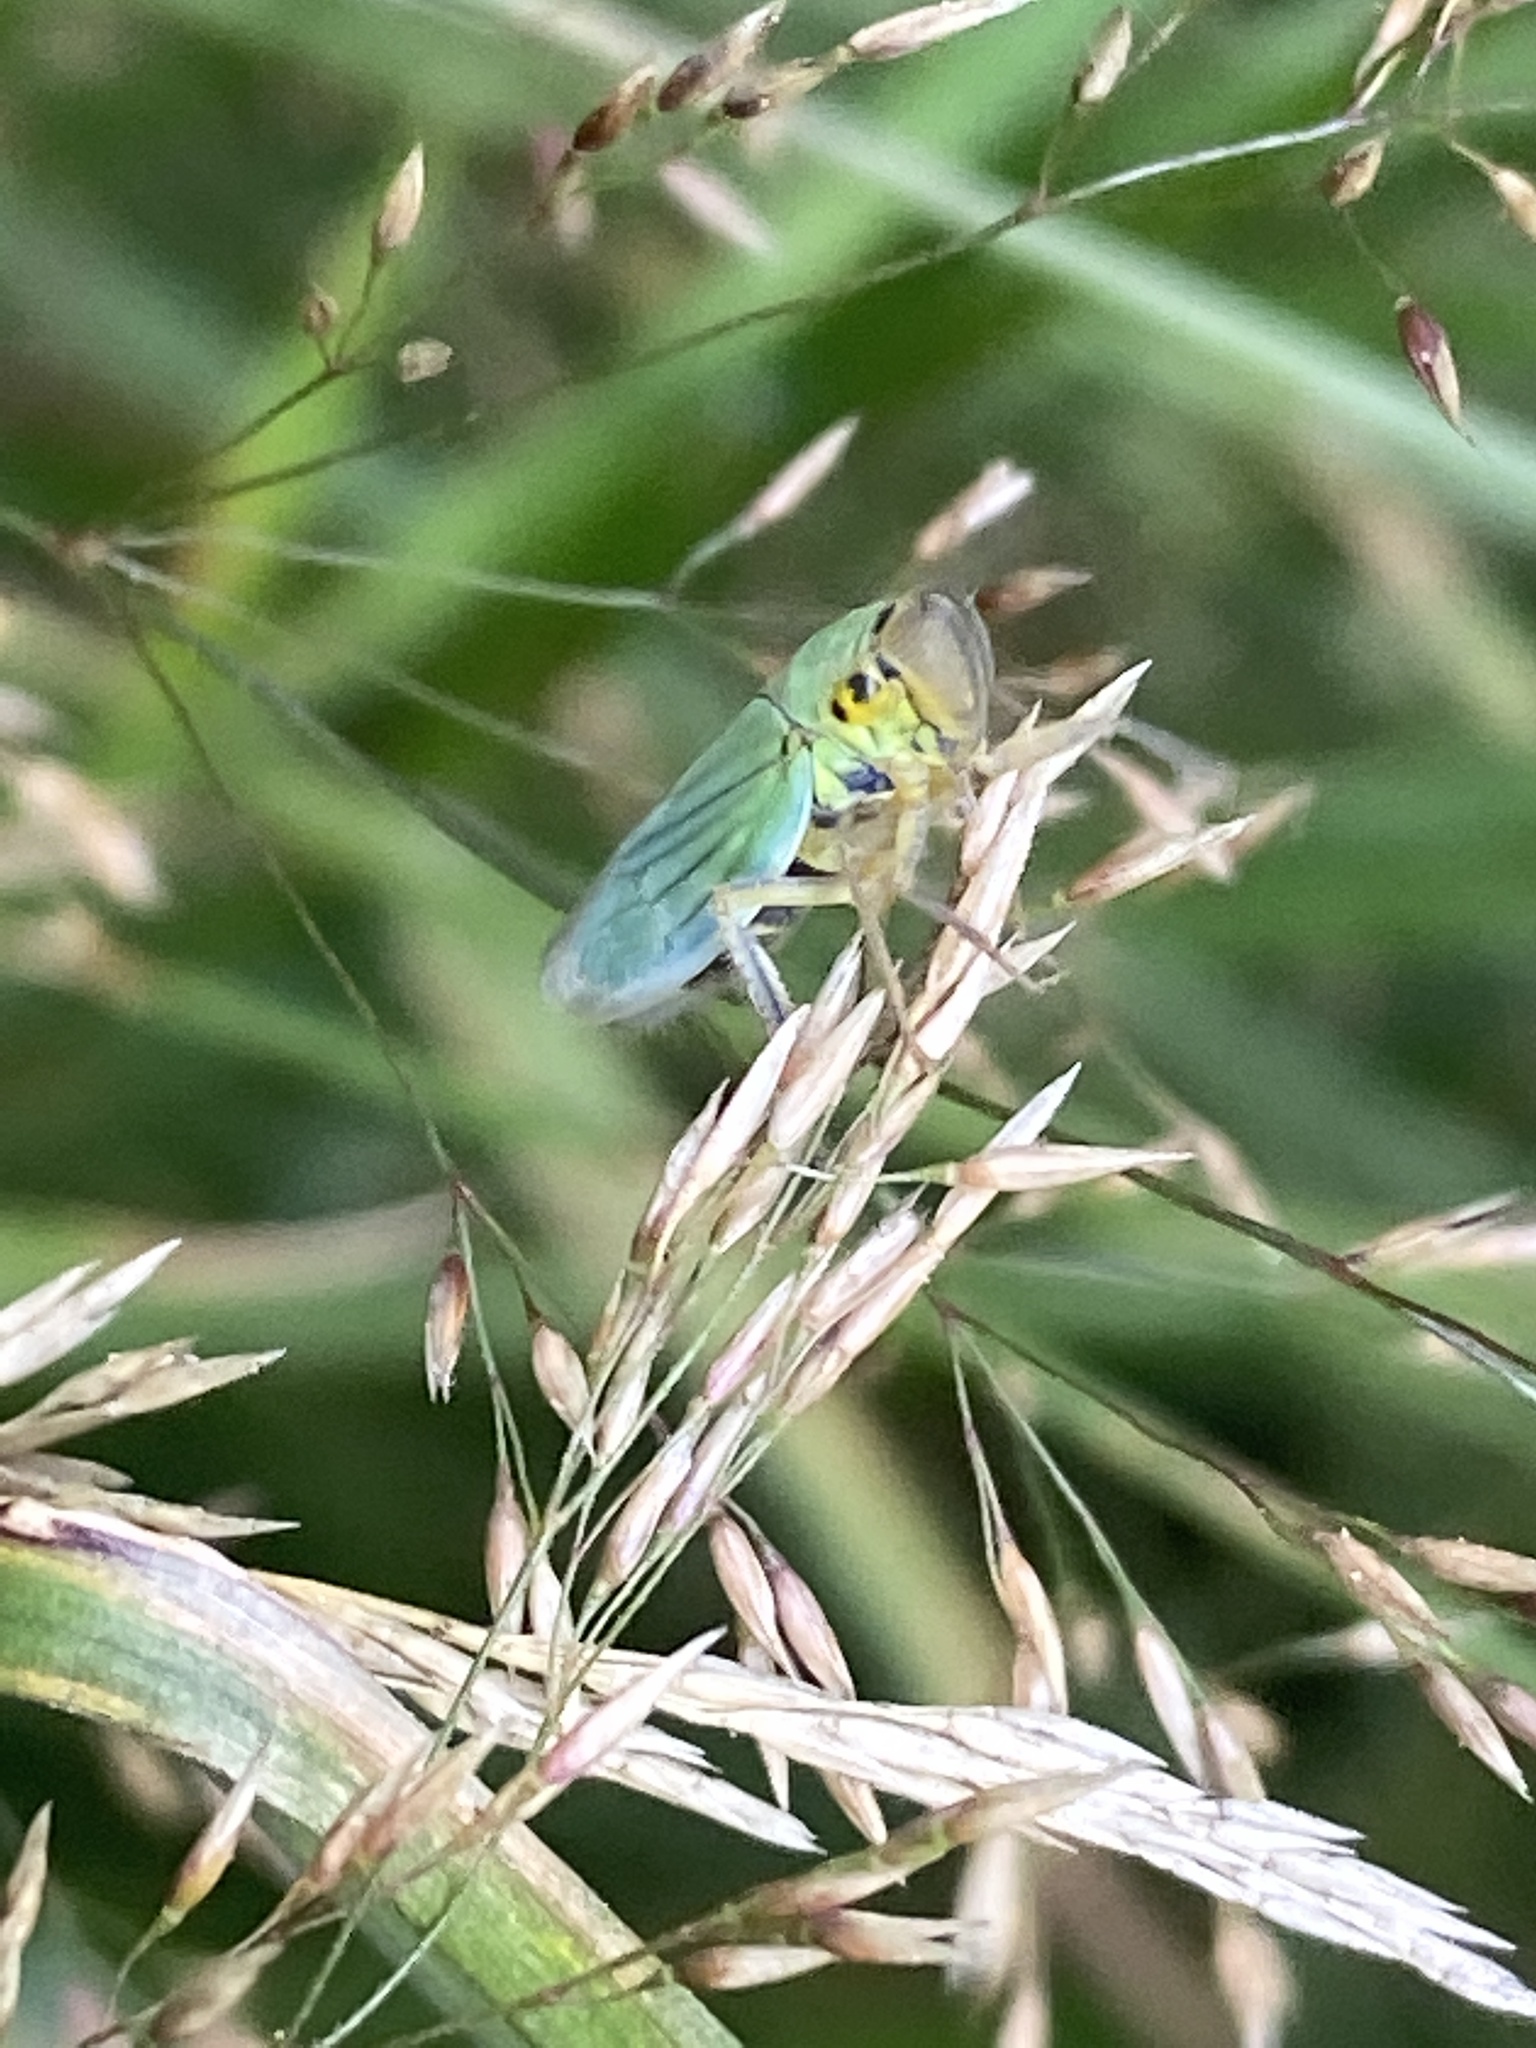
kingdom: Animalia
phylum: Arthropoda
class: Insecta
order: Hemiptera
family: Cicadellidae
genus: Cicadella
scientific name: Cicadella viridis
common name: Leafhopper
